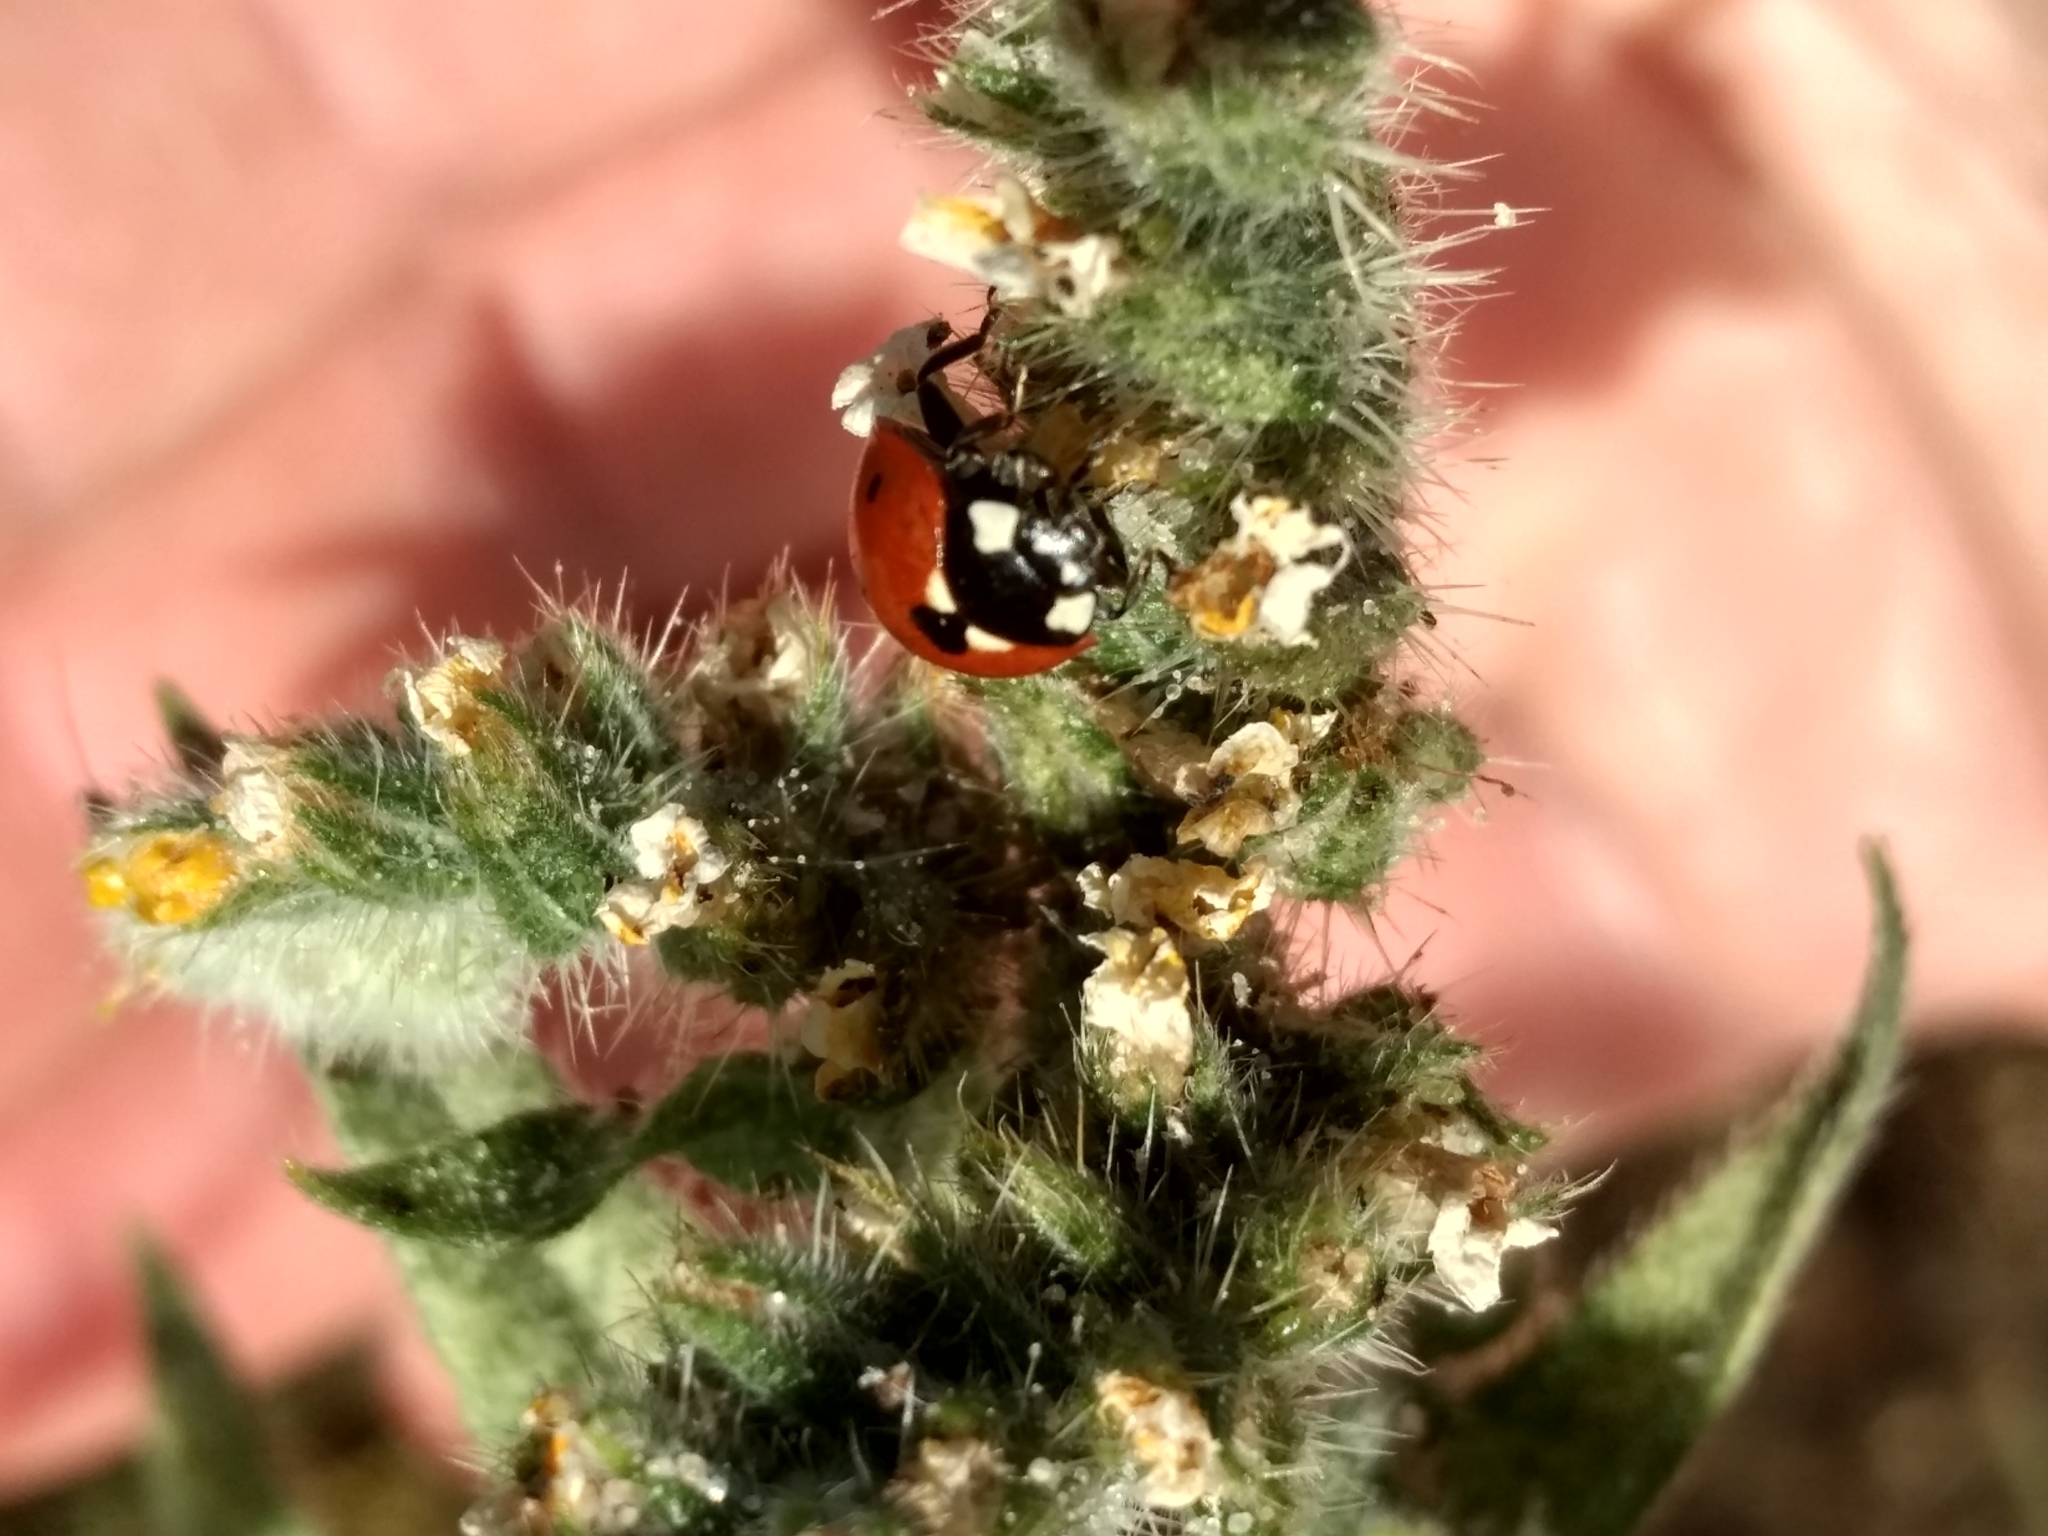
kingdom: Animalia
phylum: Arthropoda
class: Insecta
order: Coleoptera
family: Coccinellidae
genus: Coccinella
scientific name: Coccinella septempunctata
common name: Sevenspotted lady beetle
